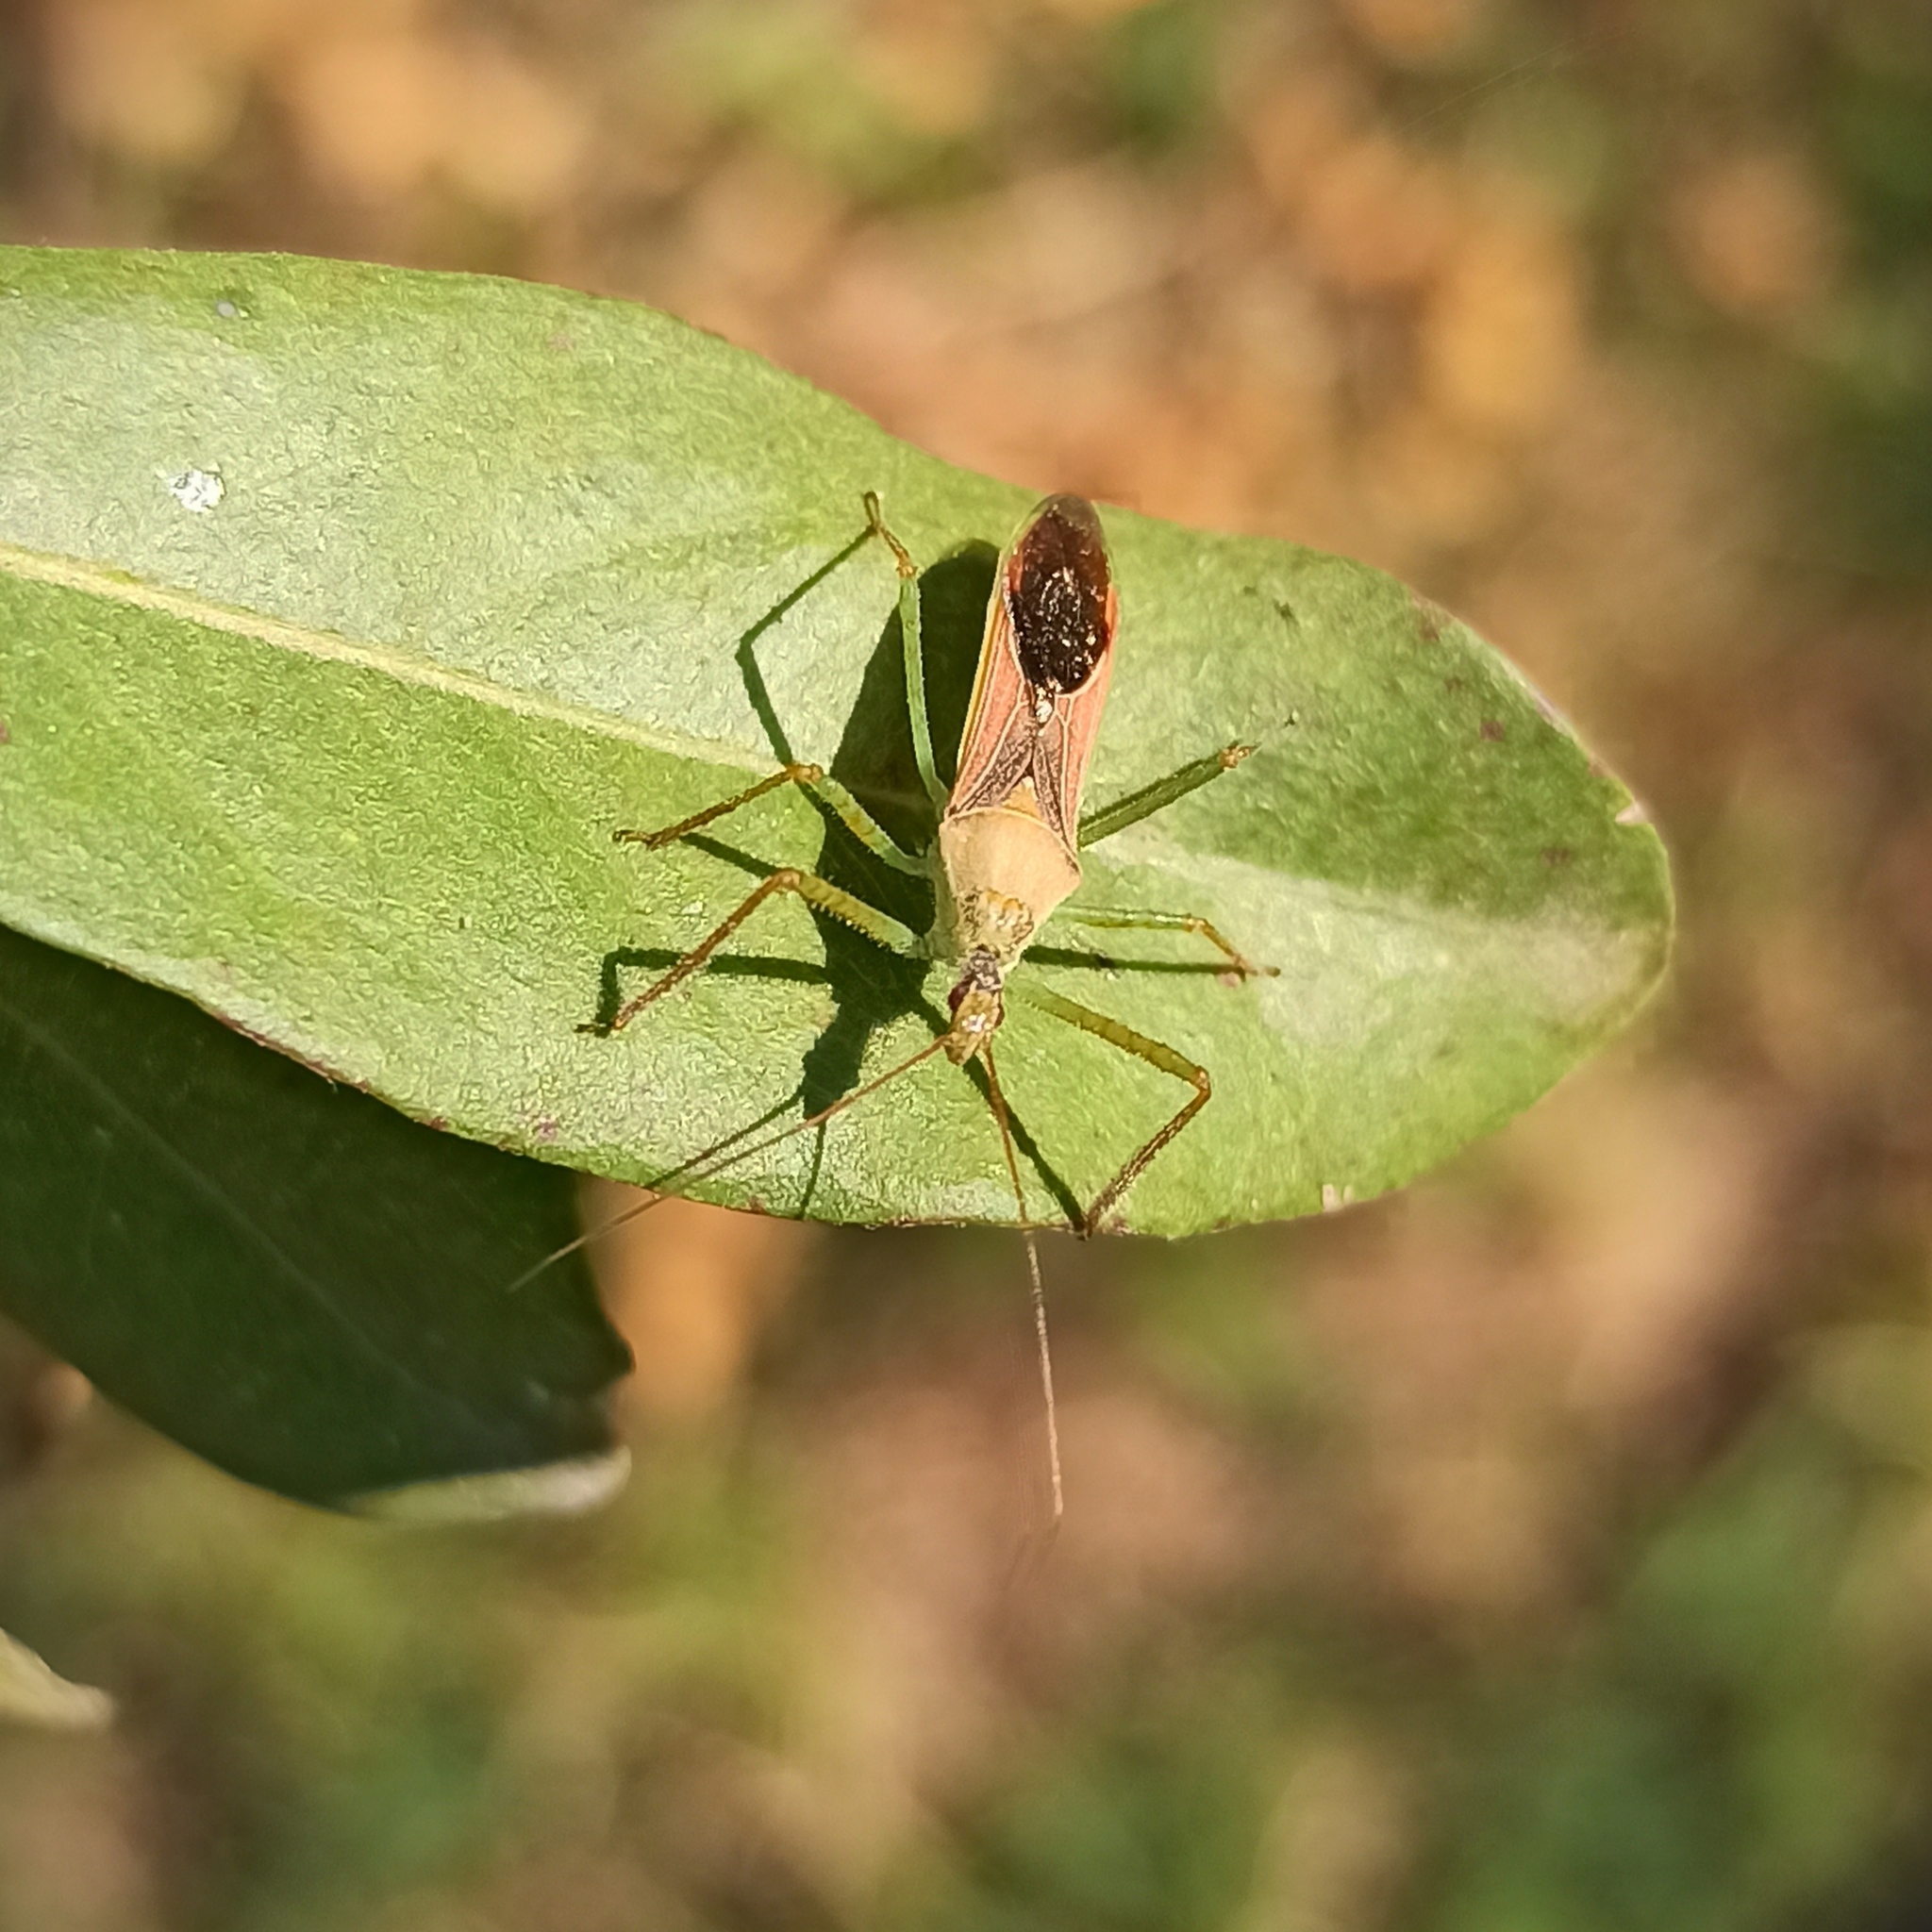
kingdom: Animalia
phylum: Arthropoda
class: Insecta
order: Hemiptera
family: Reduviidae
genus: Zelus
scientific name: Zelus renardii
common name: Assassin bug
